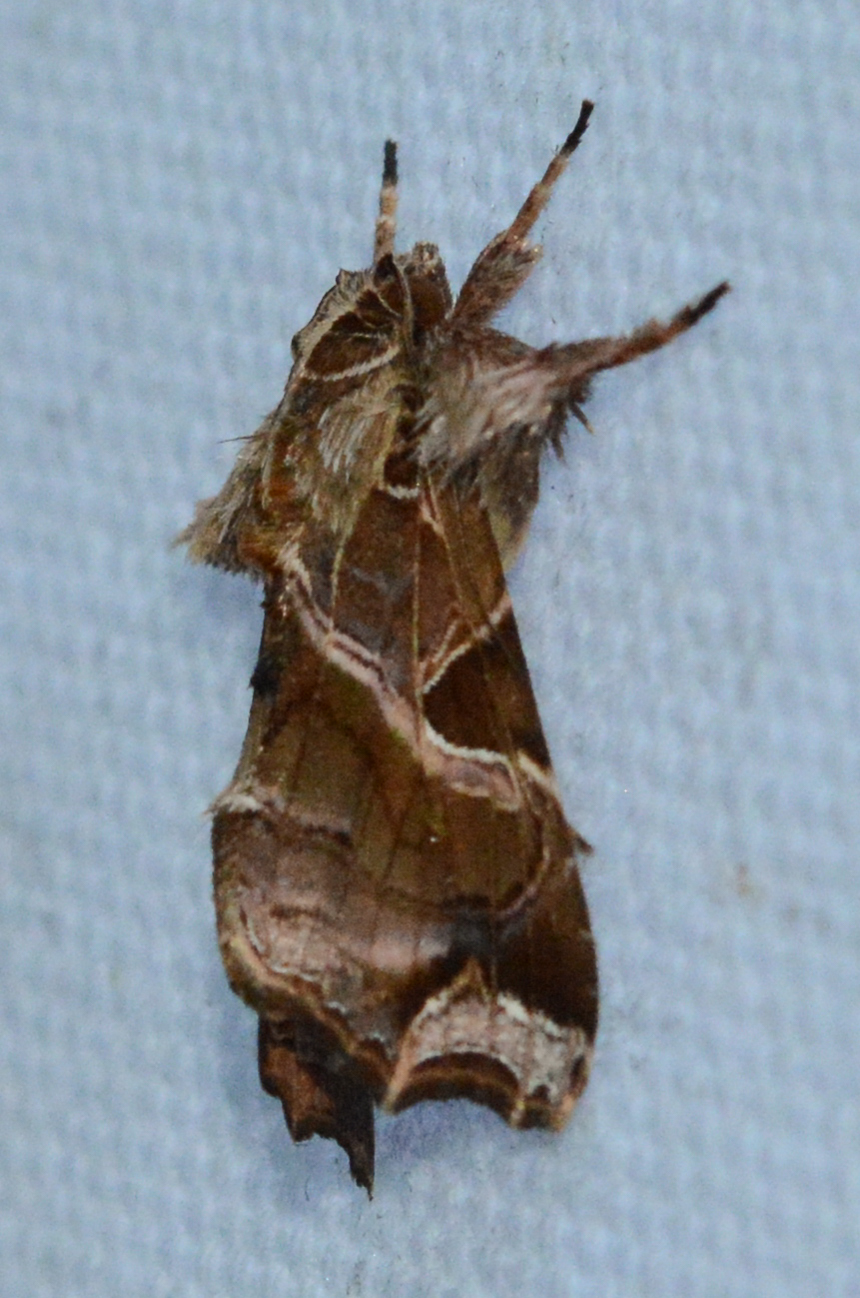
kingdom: Animalia
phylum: Arthropoda
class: Insecta
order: Lepidoptera
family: Noctuidae
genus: Callopistria
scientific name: Callopistria floridensis
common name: Florida fern moth
